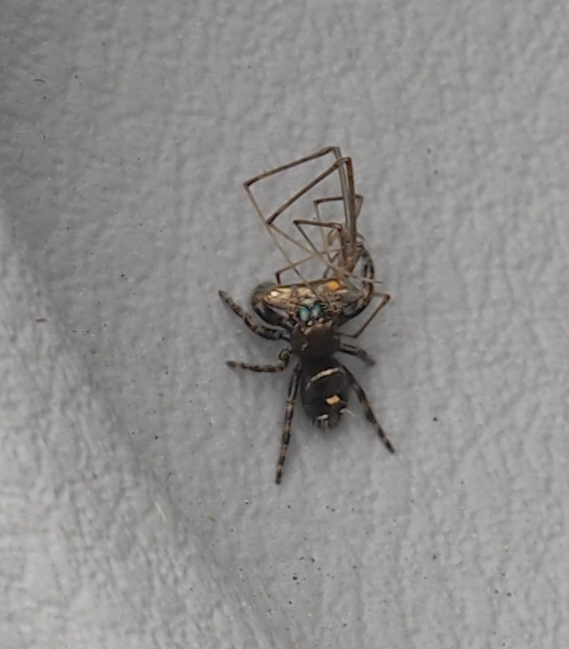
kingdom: Animalia
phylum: Arthropoda
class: Arachnida
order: Araneae
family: Salticidae
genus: Phidippus
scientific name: Phidippus audax
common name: Bold jumper
